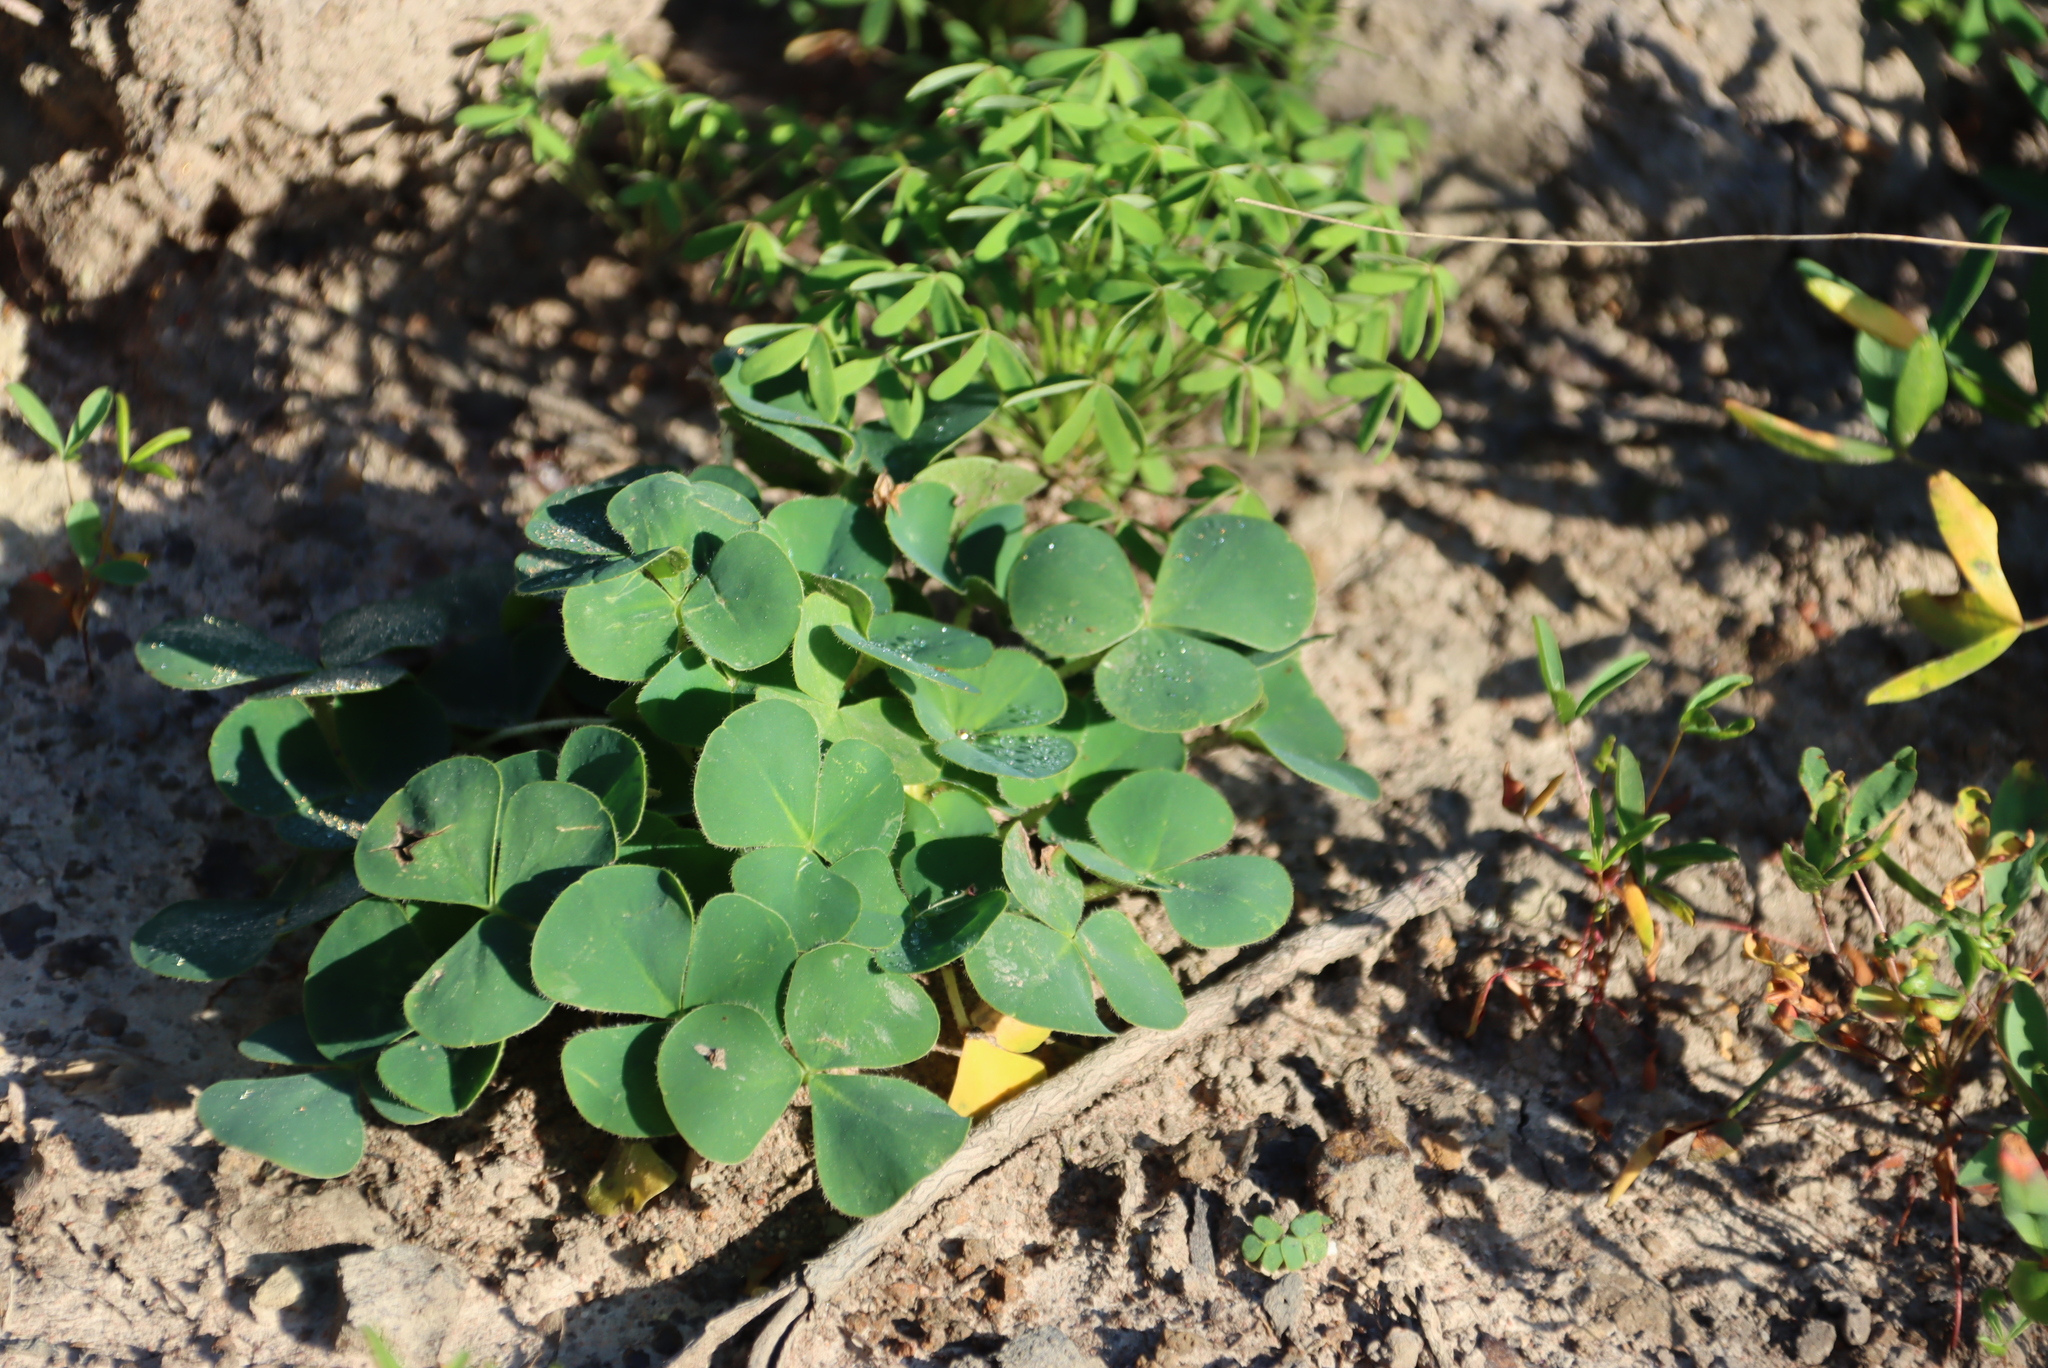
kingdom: Plantae
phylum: Tracheophyta
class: Magnoliopsida
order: Oxalidales
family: Oxalidaceae
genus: Oxalis
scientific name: Oxalis stellata
